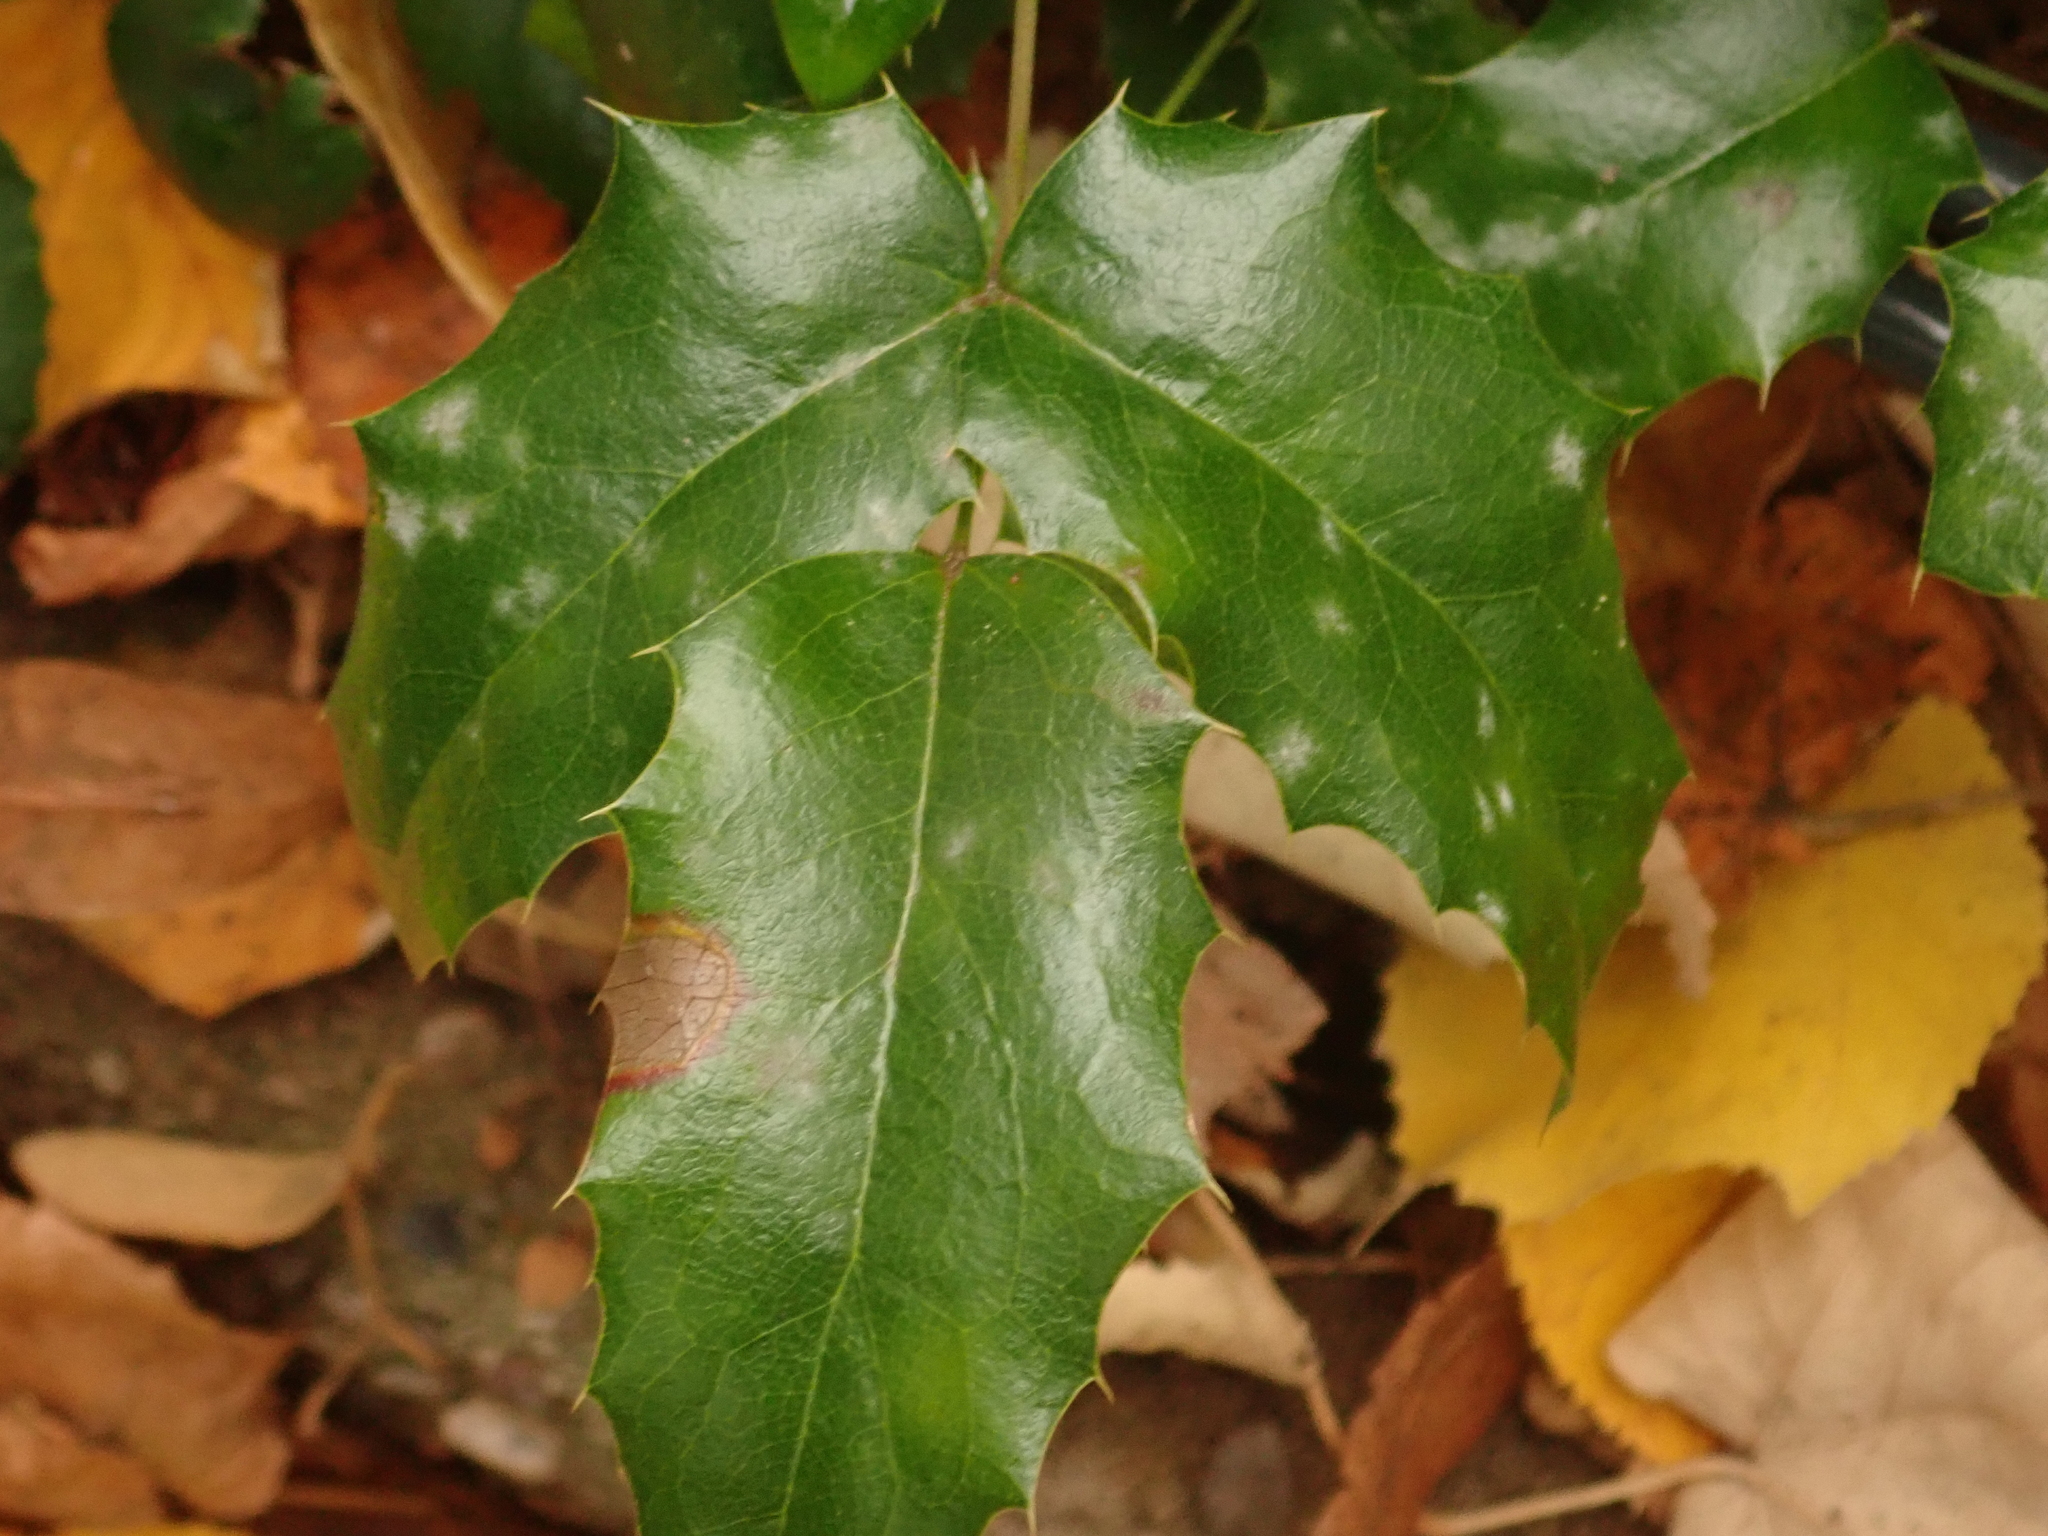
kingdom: Plantae
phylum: Tracheophyta
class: Magnoliopsida
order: Ranunculales
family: Berberidaceae
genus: Mahonia
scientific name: Mahonia aquifolium
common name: Oregon-grape
